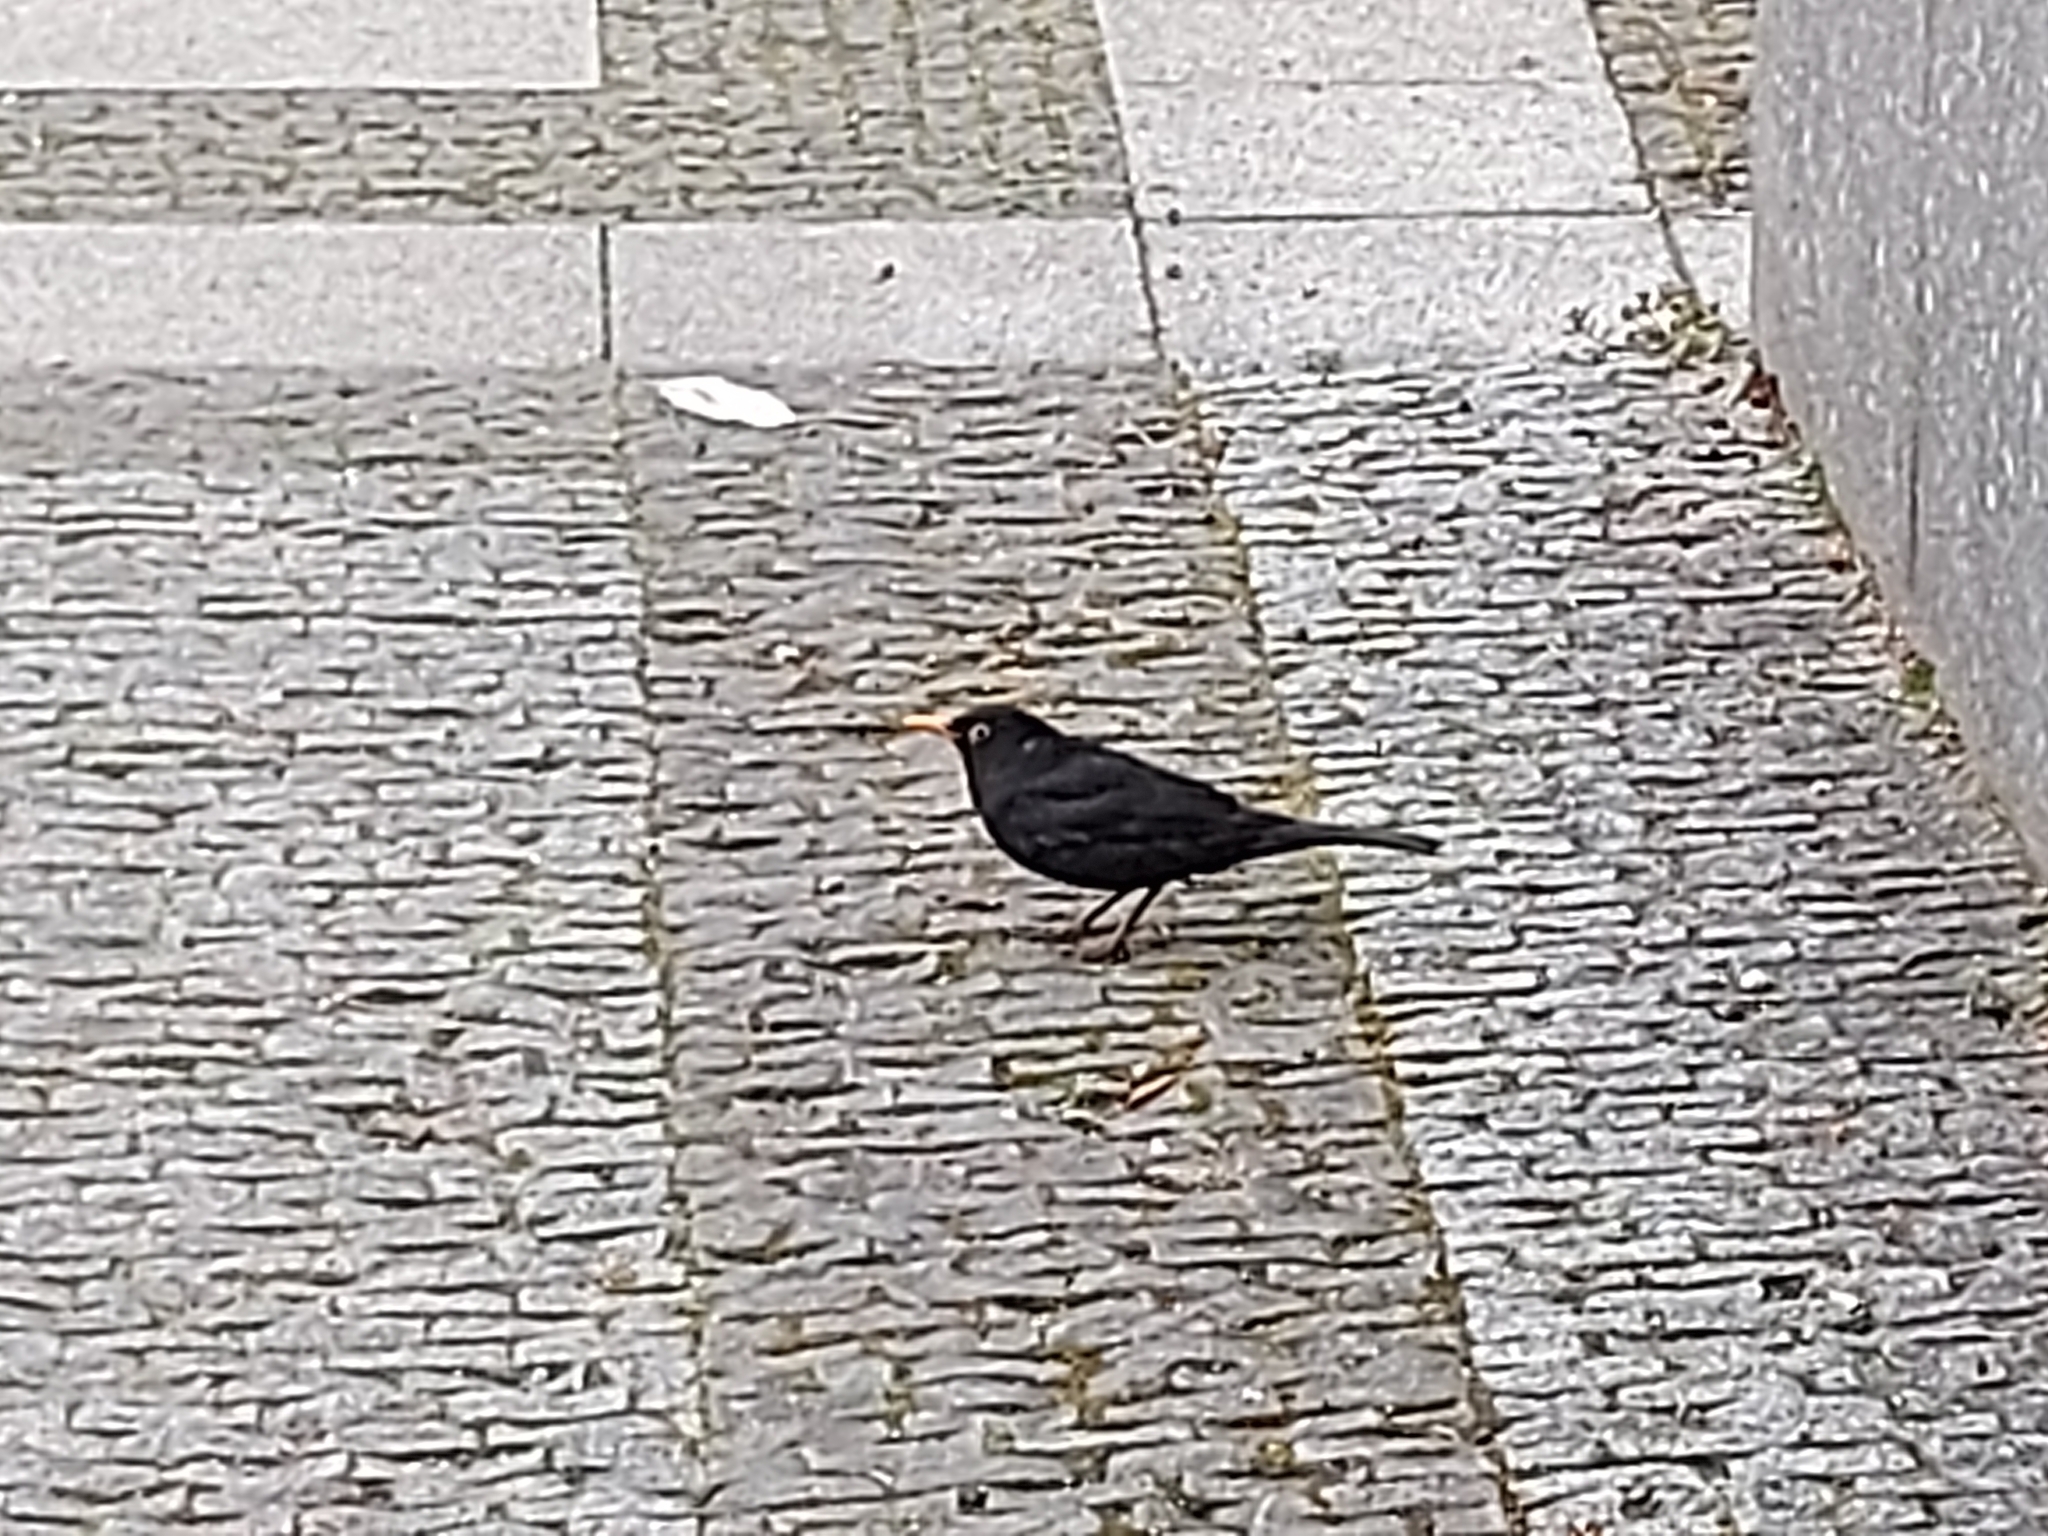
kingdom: Animalia
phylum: Chordata
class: Aves
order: Passeriformes
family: Turdidae
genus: Turdus
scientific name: Turdus merula
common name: Common blackbird
